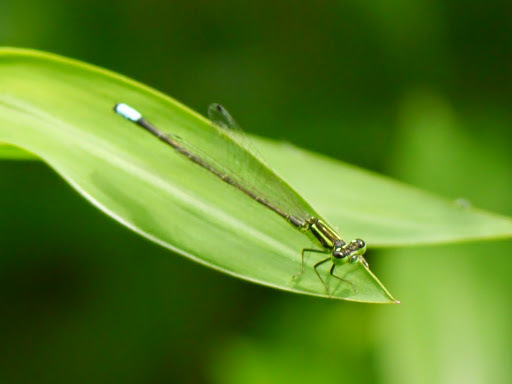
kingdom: Animalia
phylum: Arthropoda
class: Insecta
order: Odonata
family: Coenagrionidae
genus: Ischnura
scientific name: Ischnura verticalis
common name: Eastern forktail
